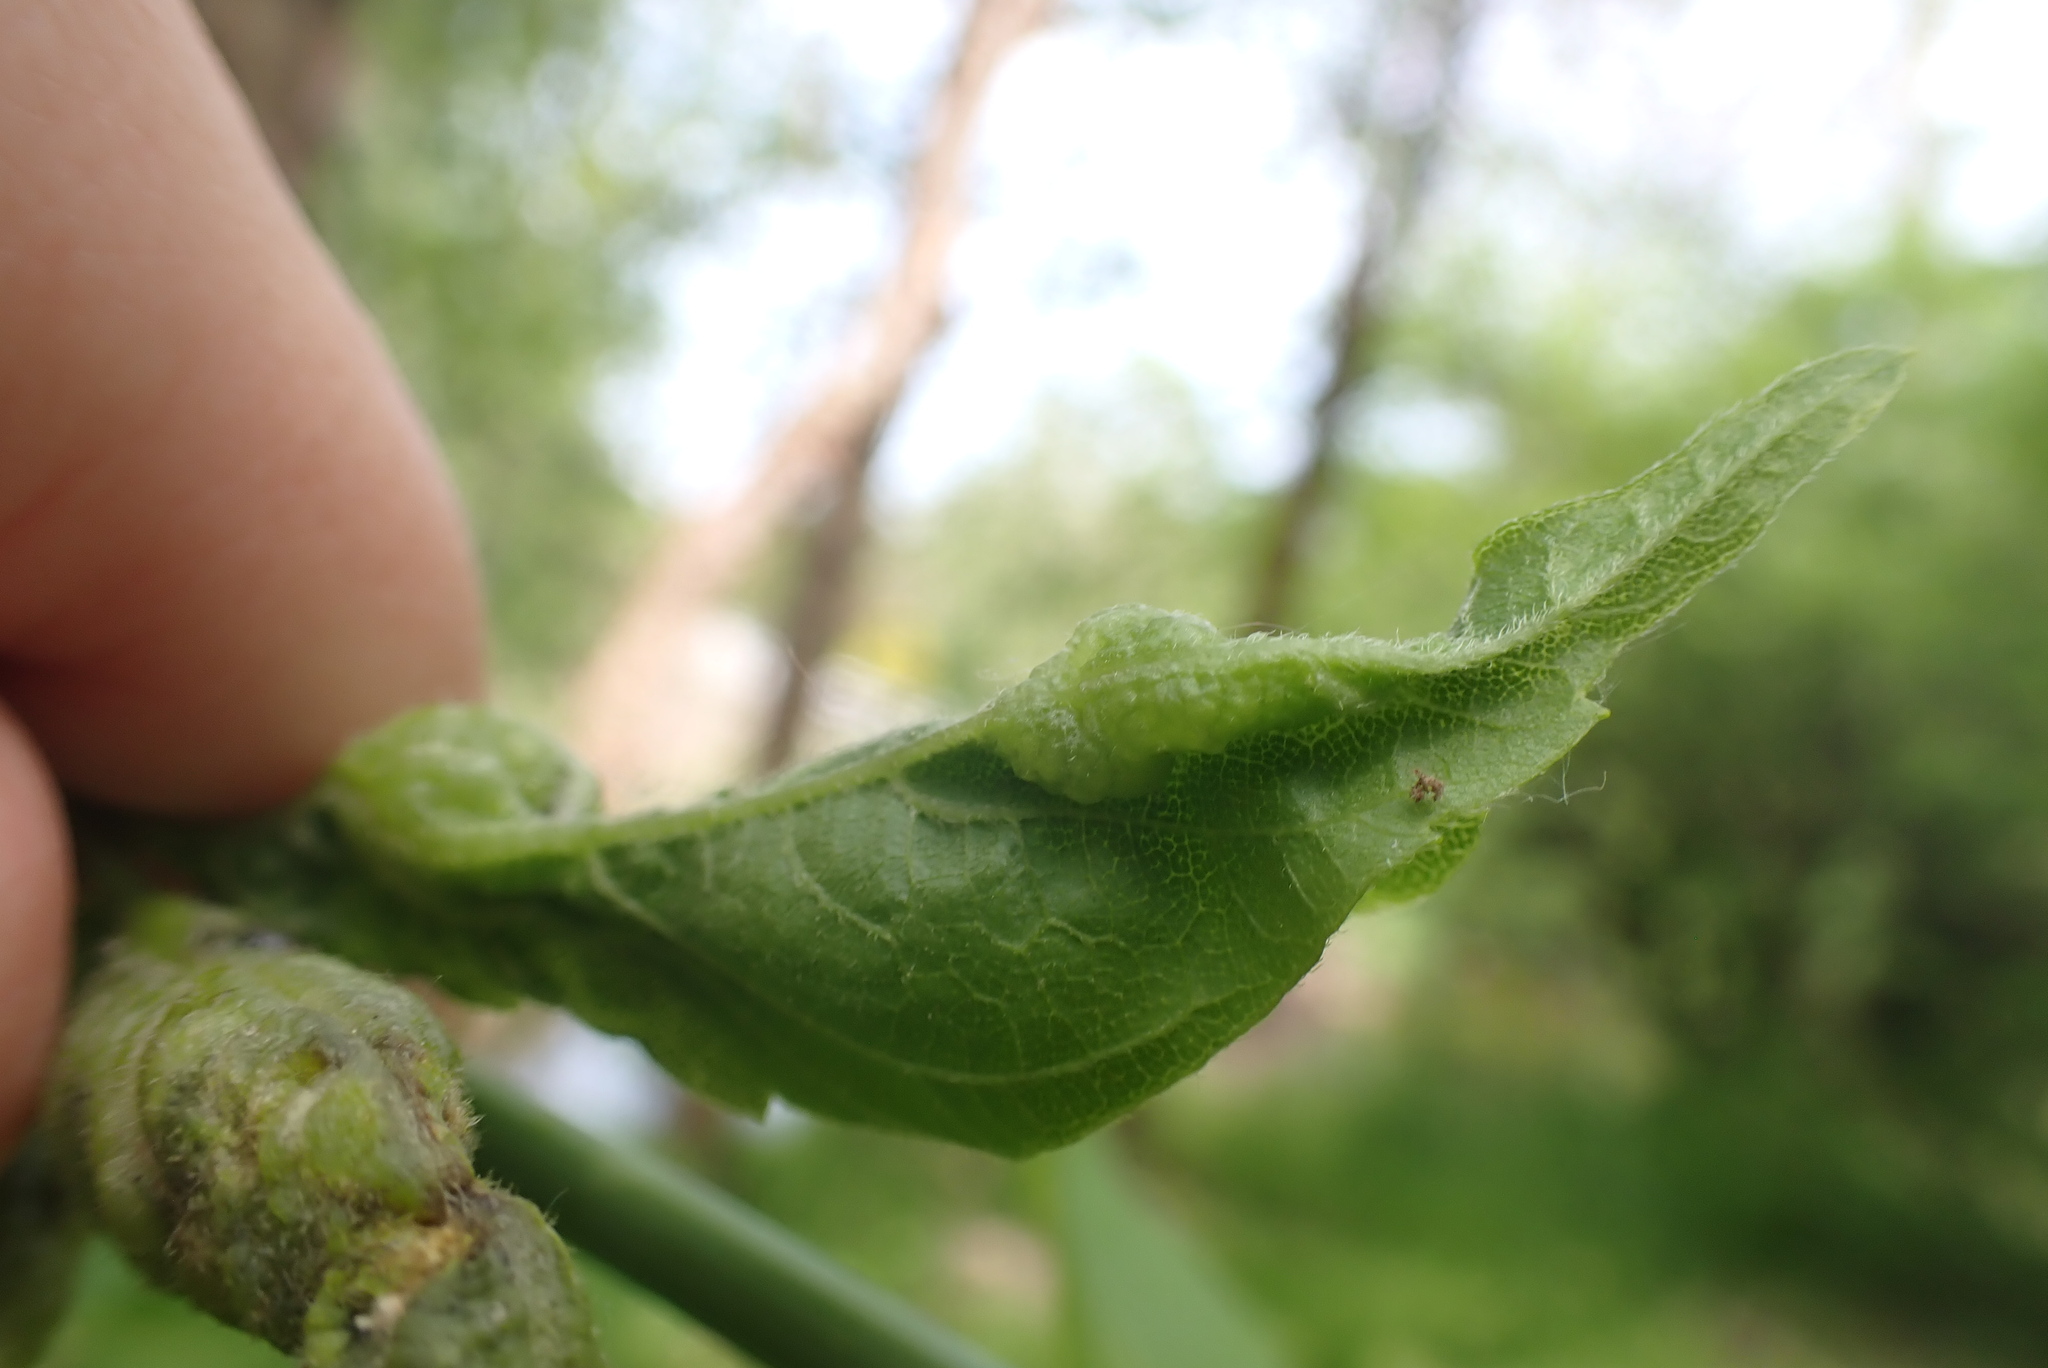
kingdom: Animalia
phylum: Arthropoda
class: Insecta
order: Diptera
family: Cecidomyiidae
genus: Contarinia
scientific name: Contarinia negundinis
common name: Boxelder budgall midge
